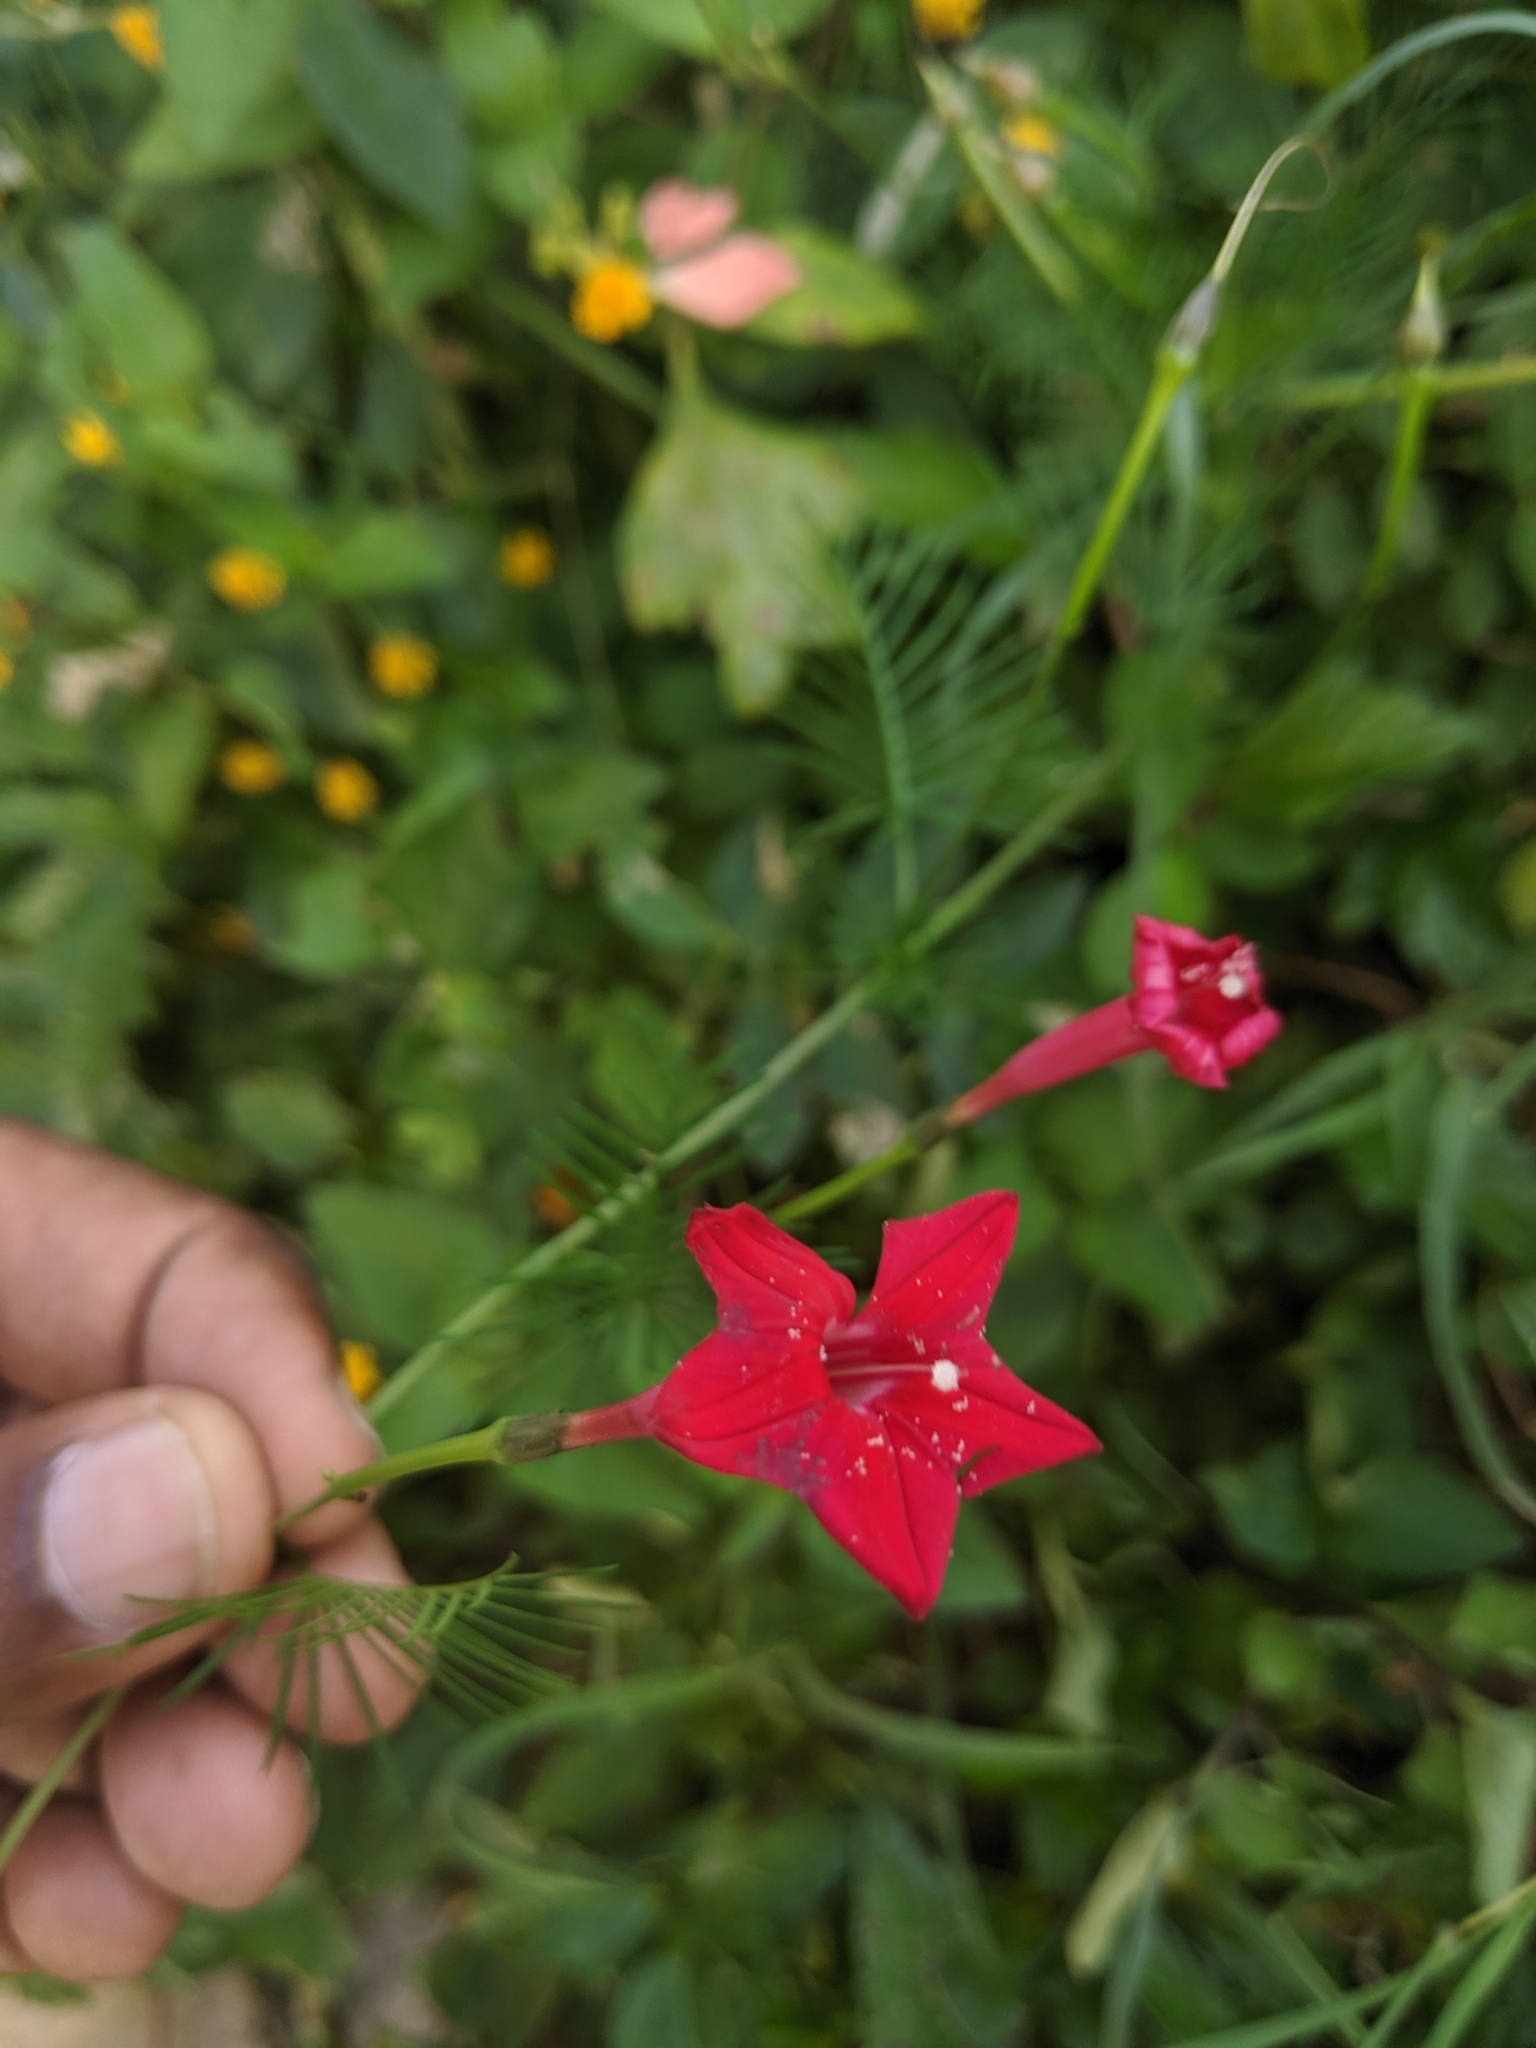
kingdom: Plantae
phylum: Tracheophyta
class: Magnoliopsida
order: Solanales
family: Convolvulaceae
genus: Ipomoea
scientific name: Ipomoea quamoclit
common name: Cypress vine
